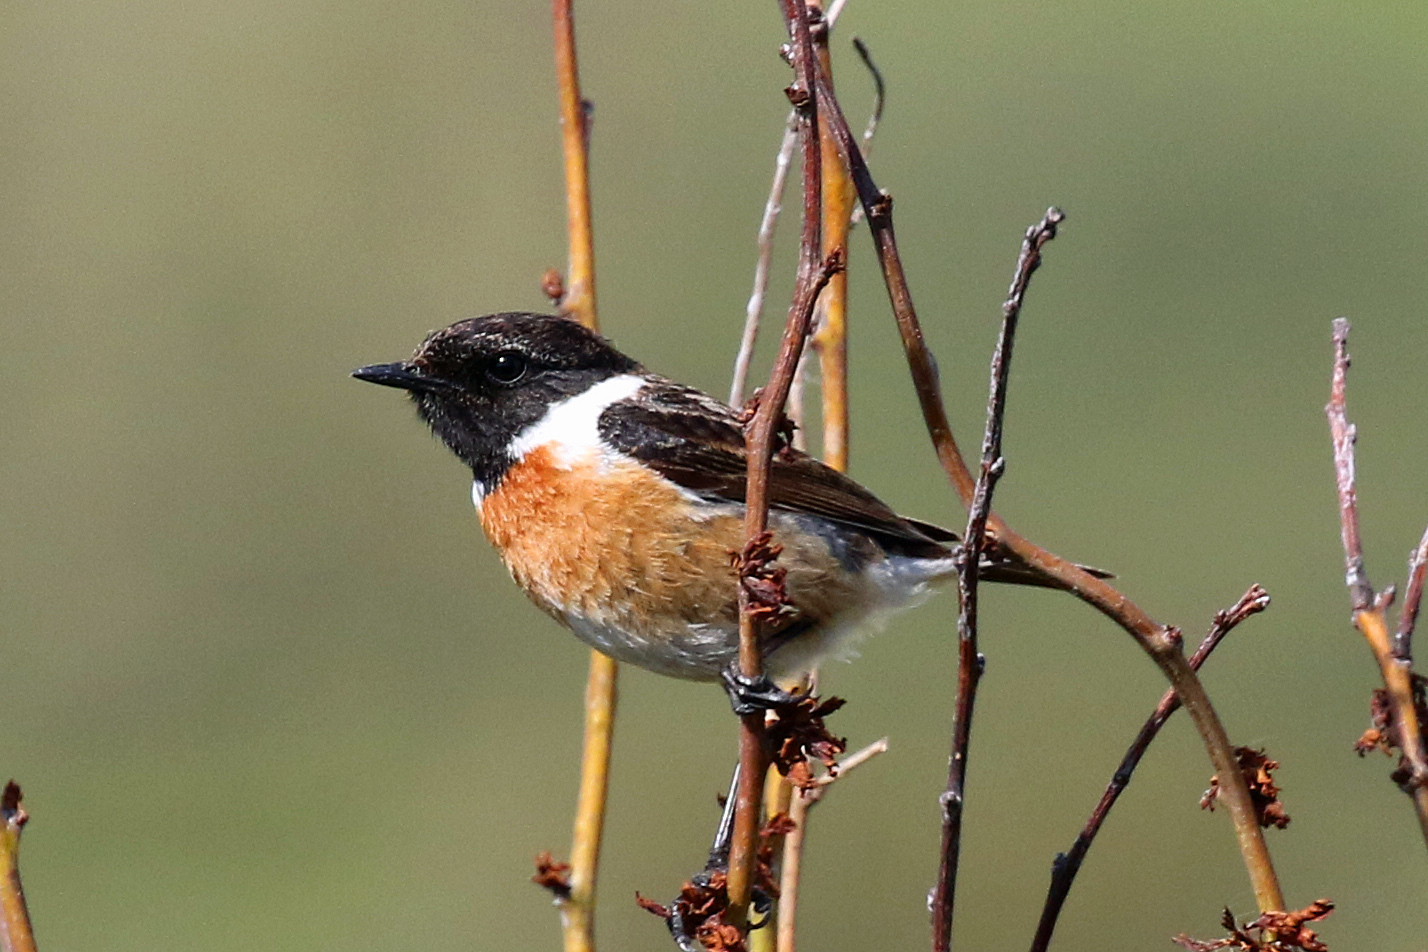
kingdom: Animalia
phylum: Chordata
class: Aves
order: Passeriformes
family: Muscicapidae
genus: Saxicola
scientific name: Saxicola rubicola
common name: European stonechat
